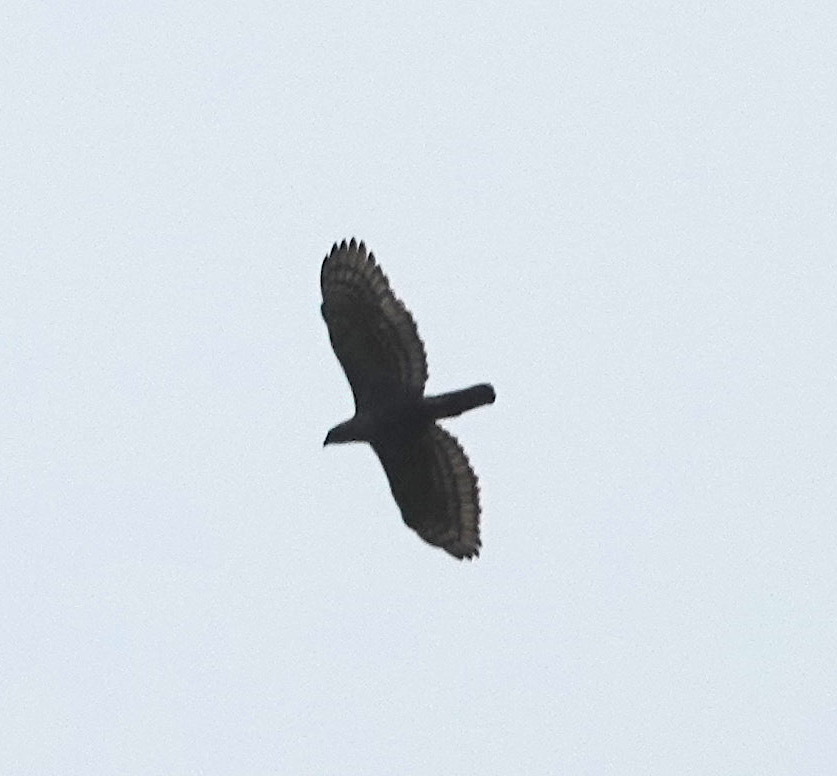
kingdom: Animalia
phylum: Chordata
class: Aves
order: Accipitriformes
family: Accipitridae
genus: Nisaetus
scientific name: Nisaetus bartelsi
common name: Javan hawk-eagle
